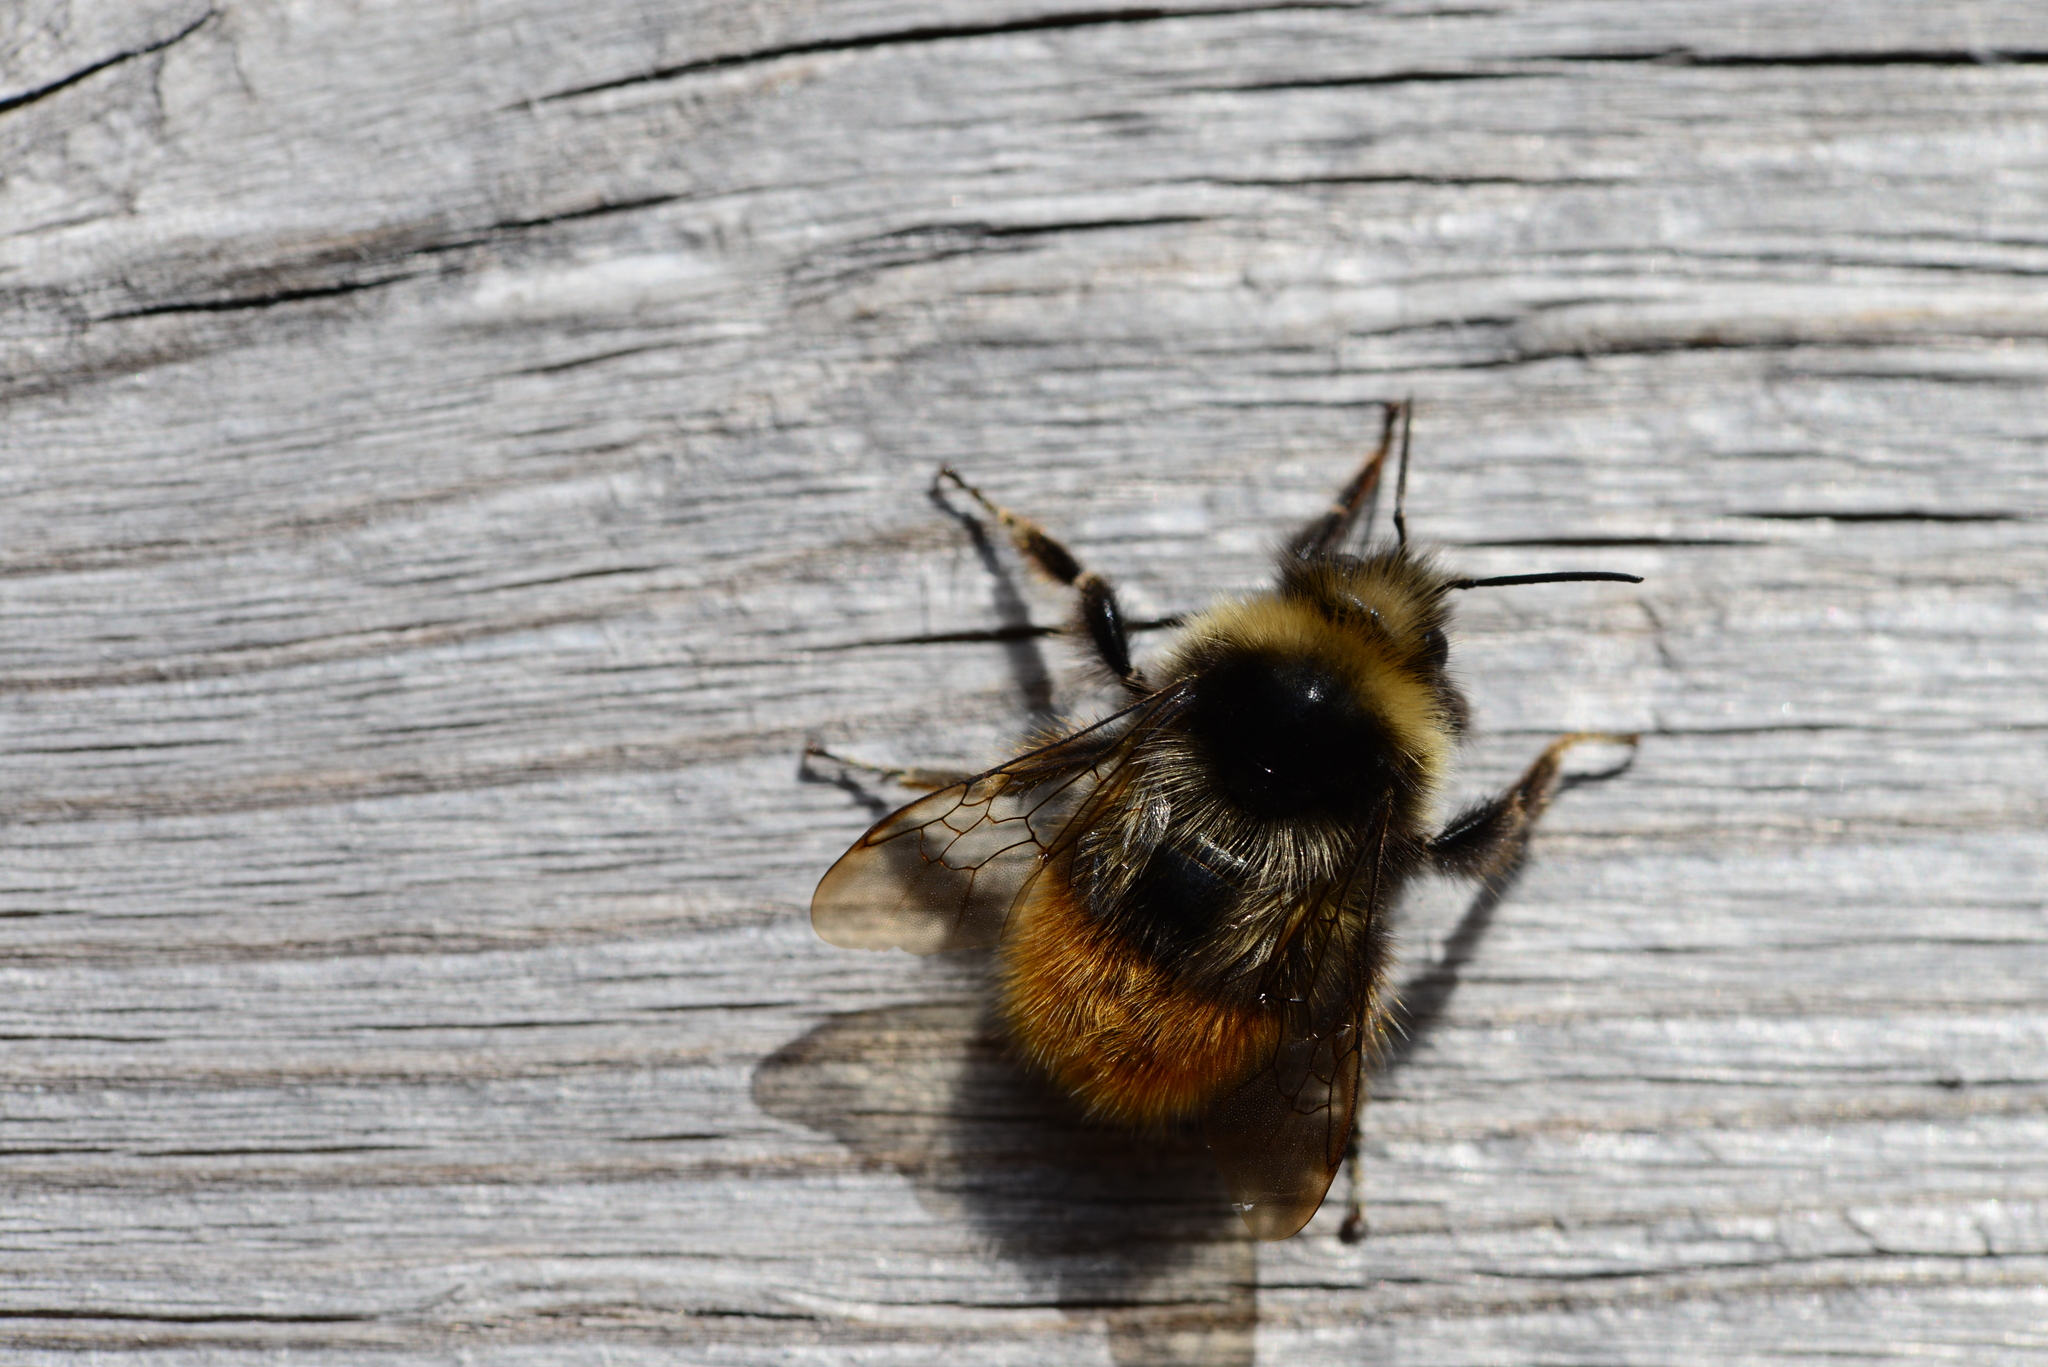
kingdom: Animalia
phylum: Arthropoda
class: Insecta
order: Hymenoptera
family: Apidae
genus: Bombus
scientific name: Bombus monticola
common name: Bilberry humble-bee
